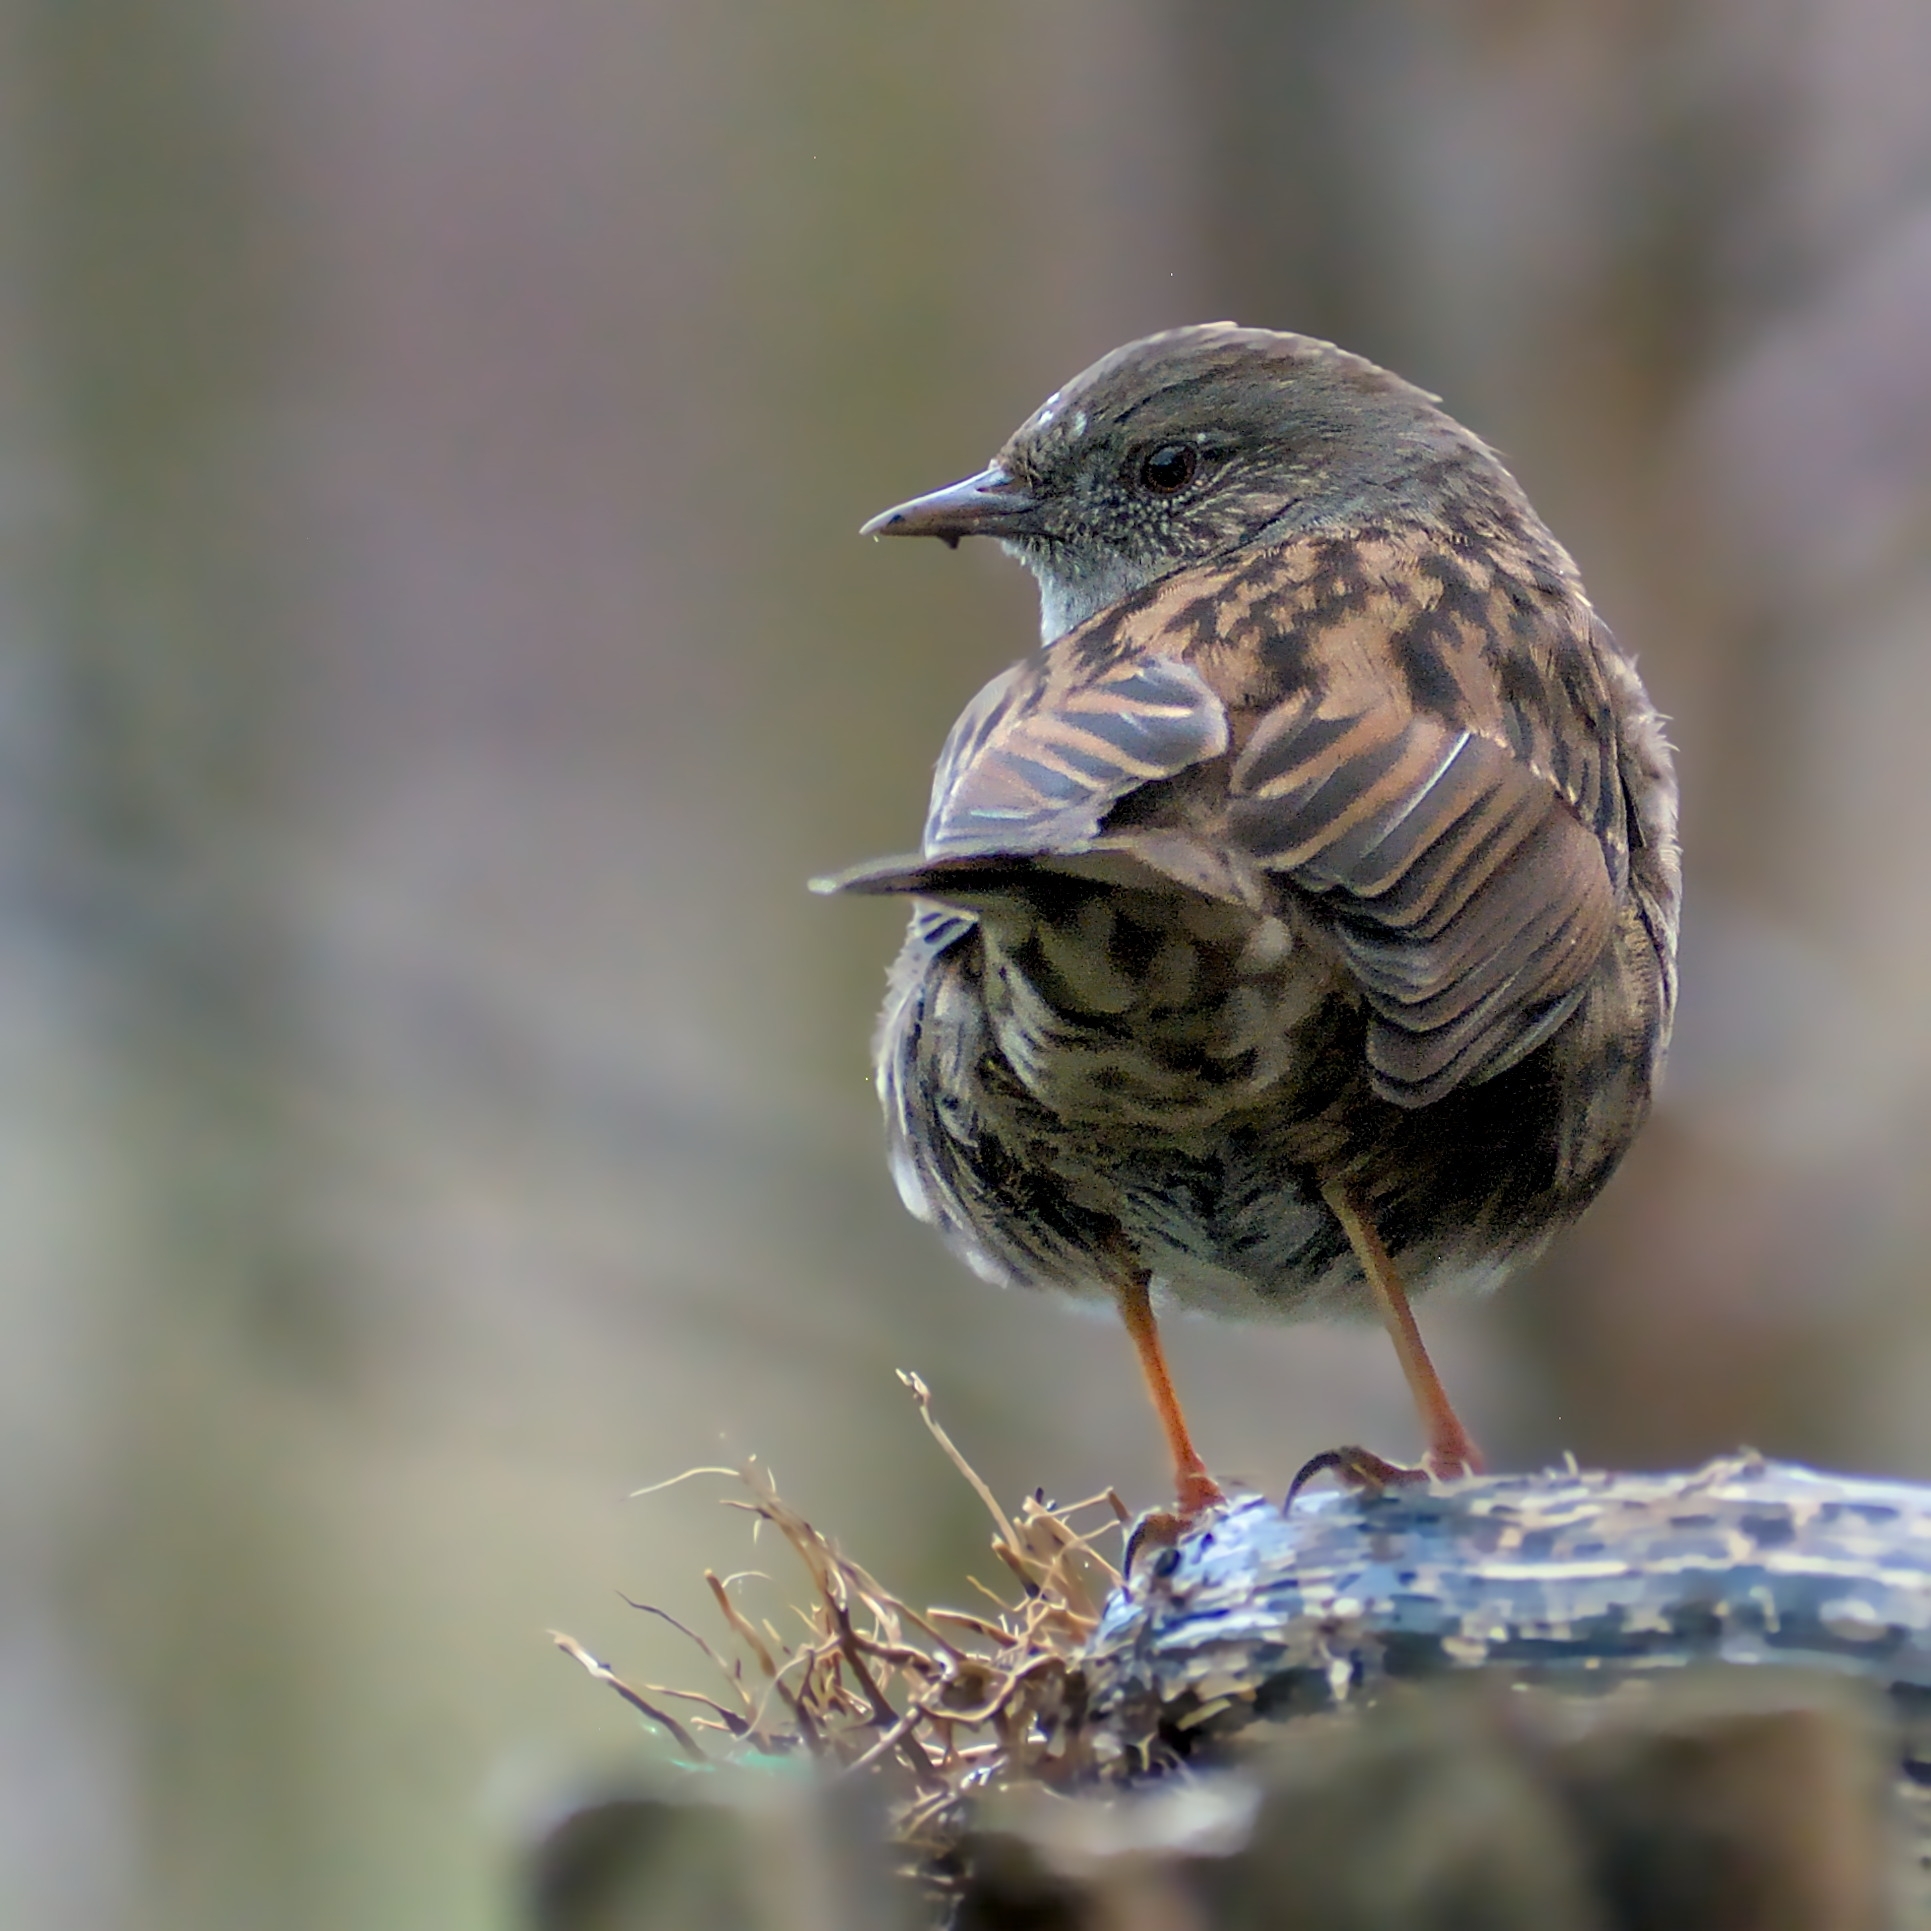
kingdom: Animalia
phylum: Chordata
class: Aves
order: Passeriformes
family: Prunellidae
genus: Prunella
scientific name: Prunella modularis
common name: Dunnock
